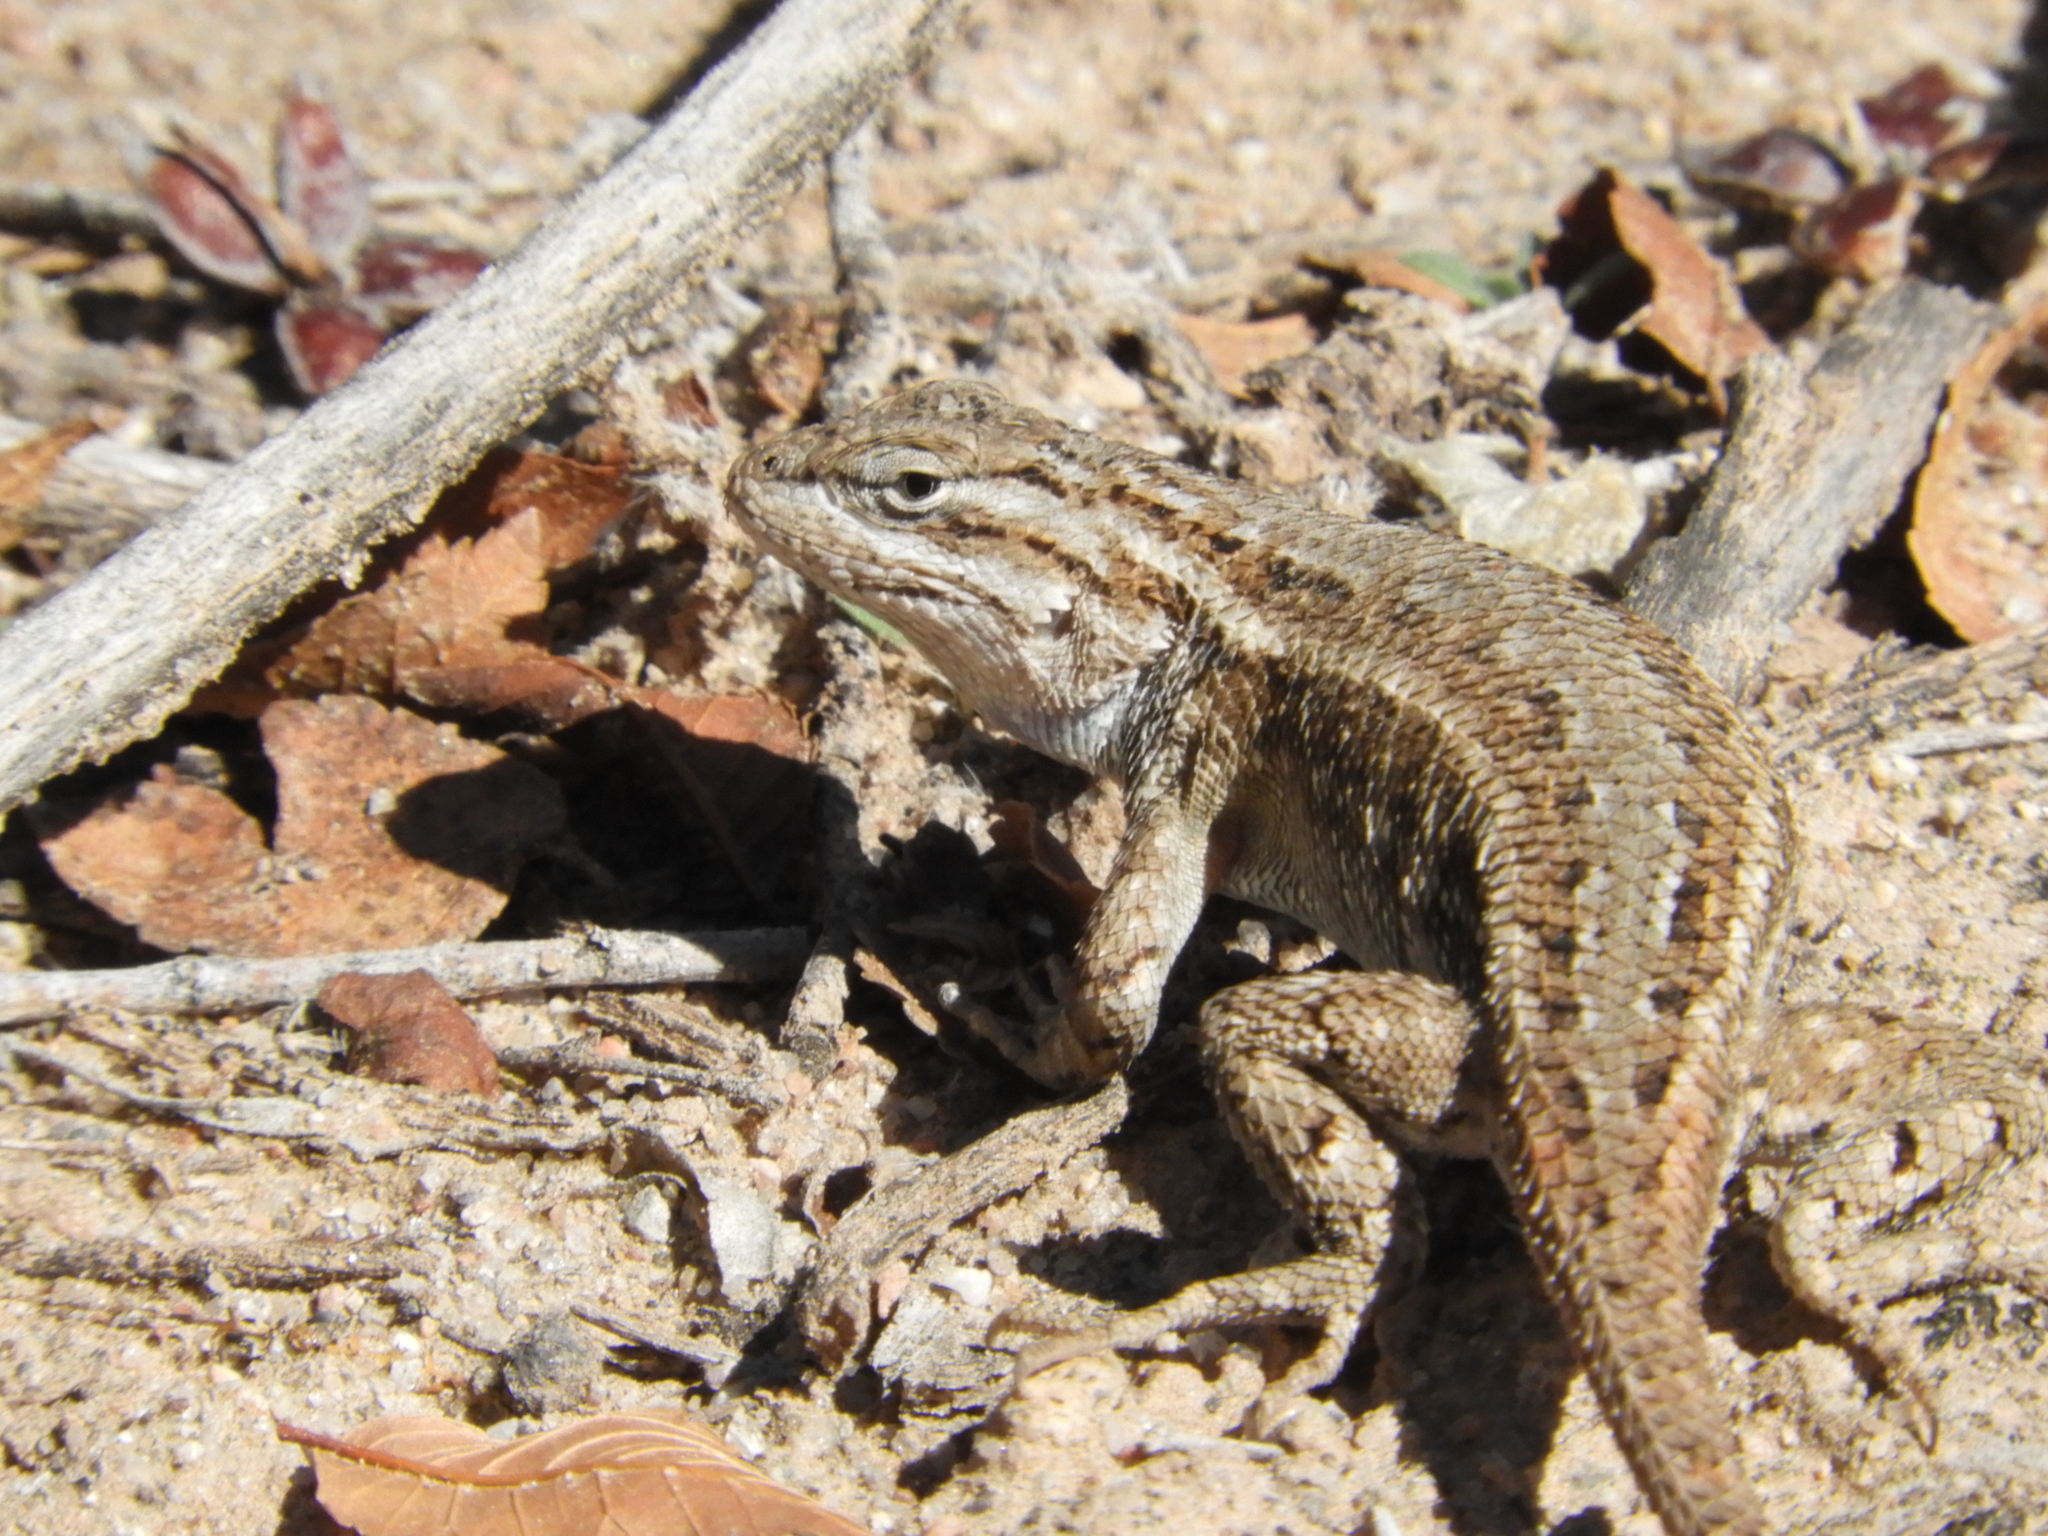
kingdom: Animalia
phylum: Chordata
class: Squamata
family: Phrynosomatidae
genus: Sceloporus
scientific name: Sceloporus cowlesi
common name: White sands prairie lizard
